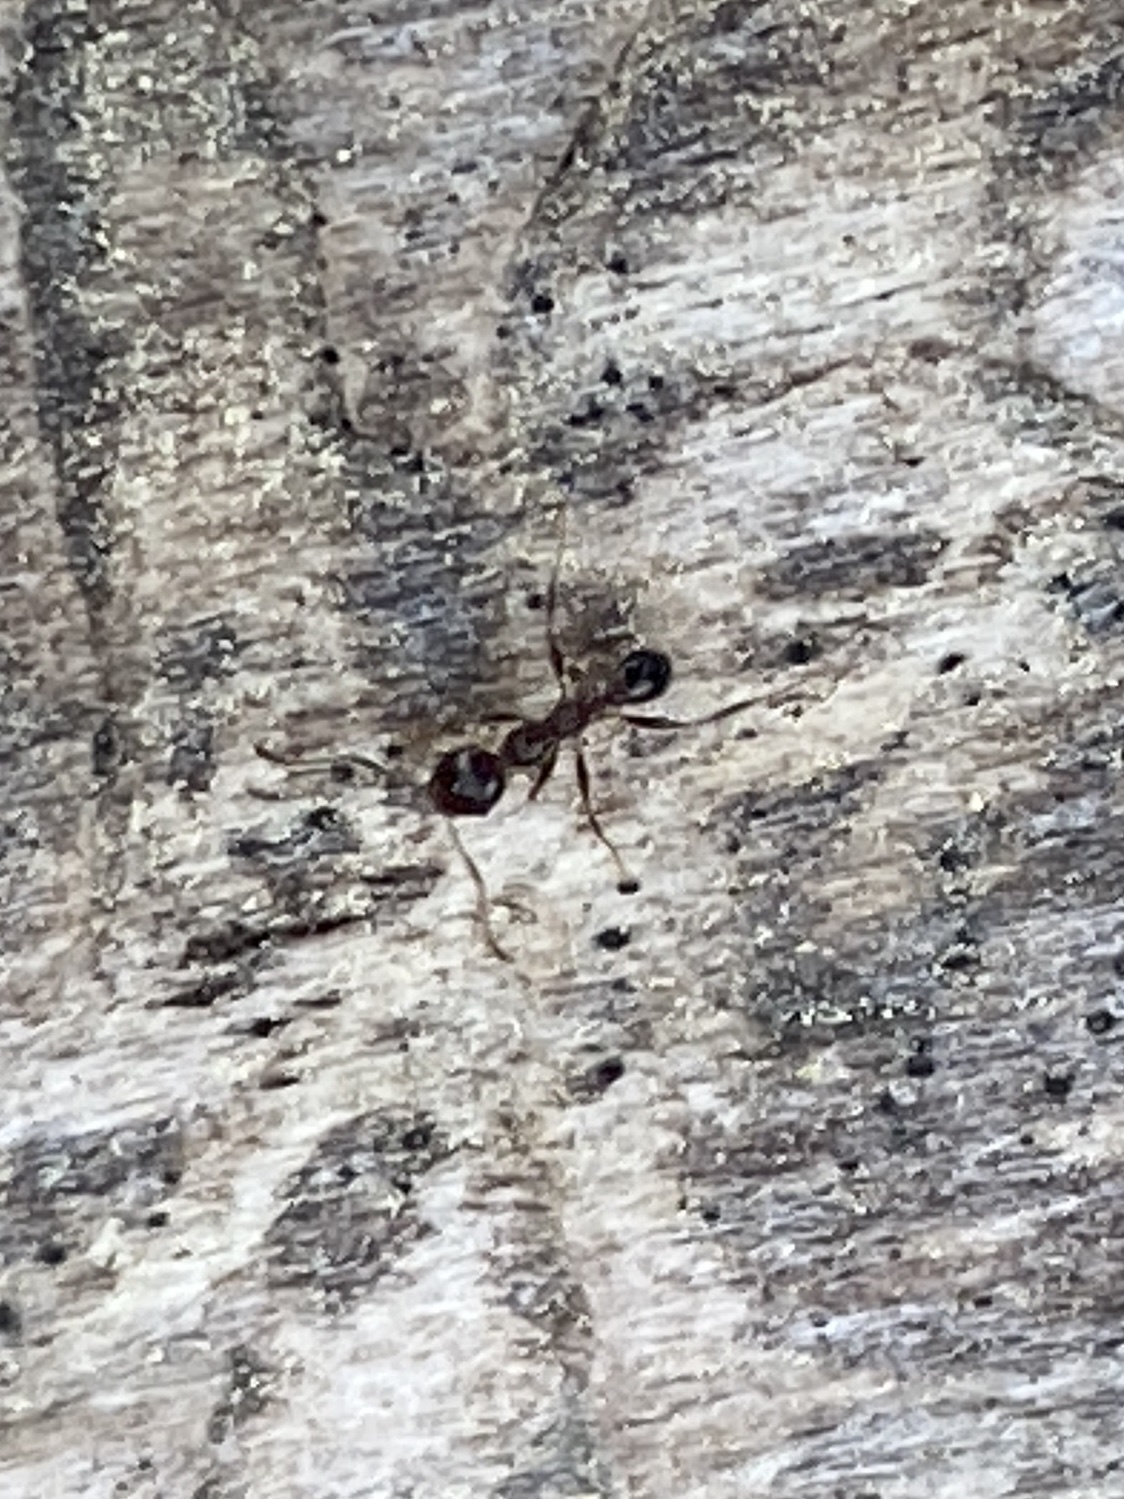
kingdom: Animalia
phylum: Arthropoda
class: Insecta
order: Hymenoptera
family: Formicidae
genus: Pheidole
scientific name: Pheidole dentata
